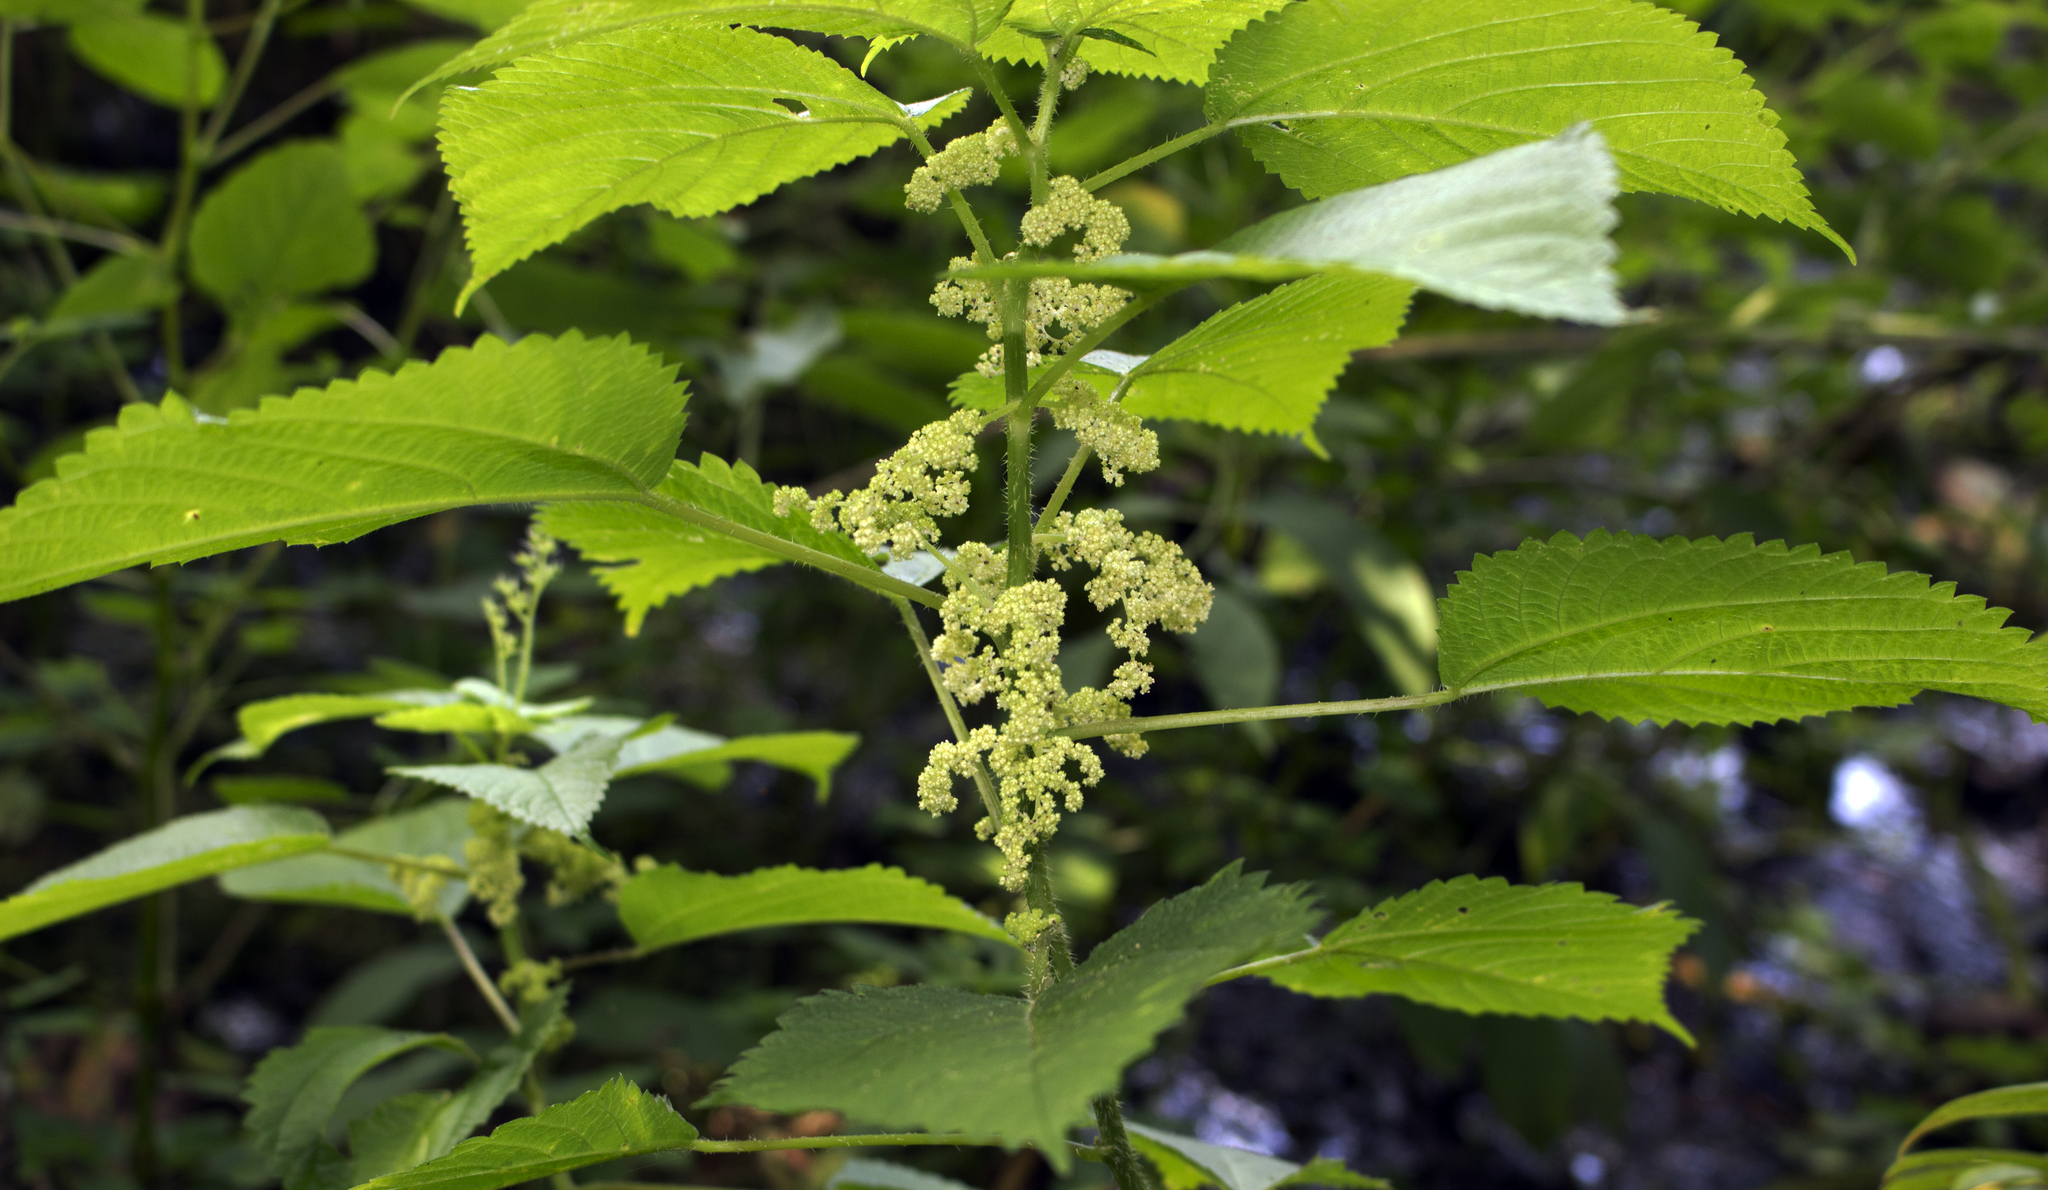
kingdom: Plantae
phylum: Tracheophyta
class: Magnoliopsida
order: Rosales
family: Urticaceae
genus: Laportea
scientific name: Laportea canadensis
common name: Canada nettle
